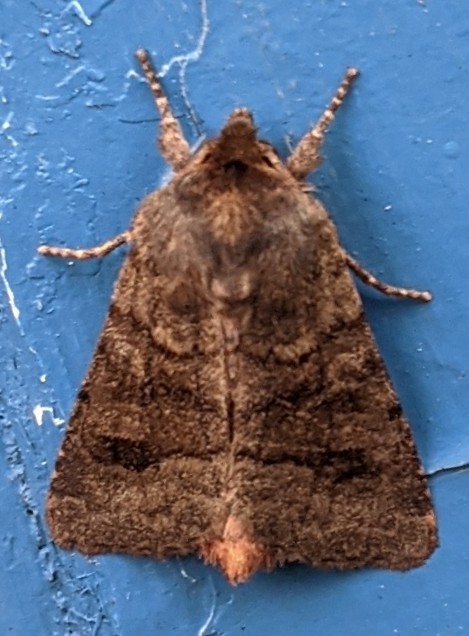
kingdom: Animalia
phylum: Arthropoda
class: Insecta
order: Lepidoptera
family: Noctuidae
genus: Nephelodes
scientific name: Nephelodes minians
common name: Bronzed cutworm
